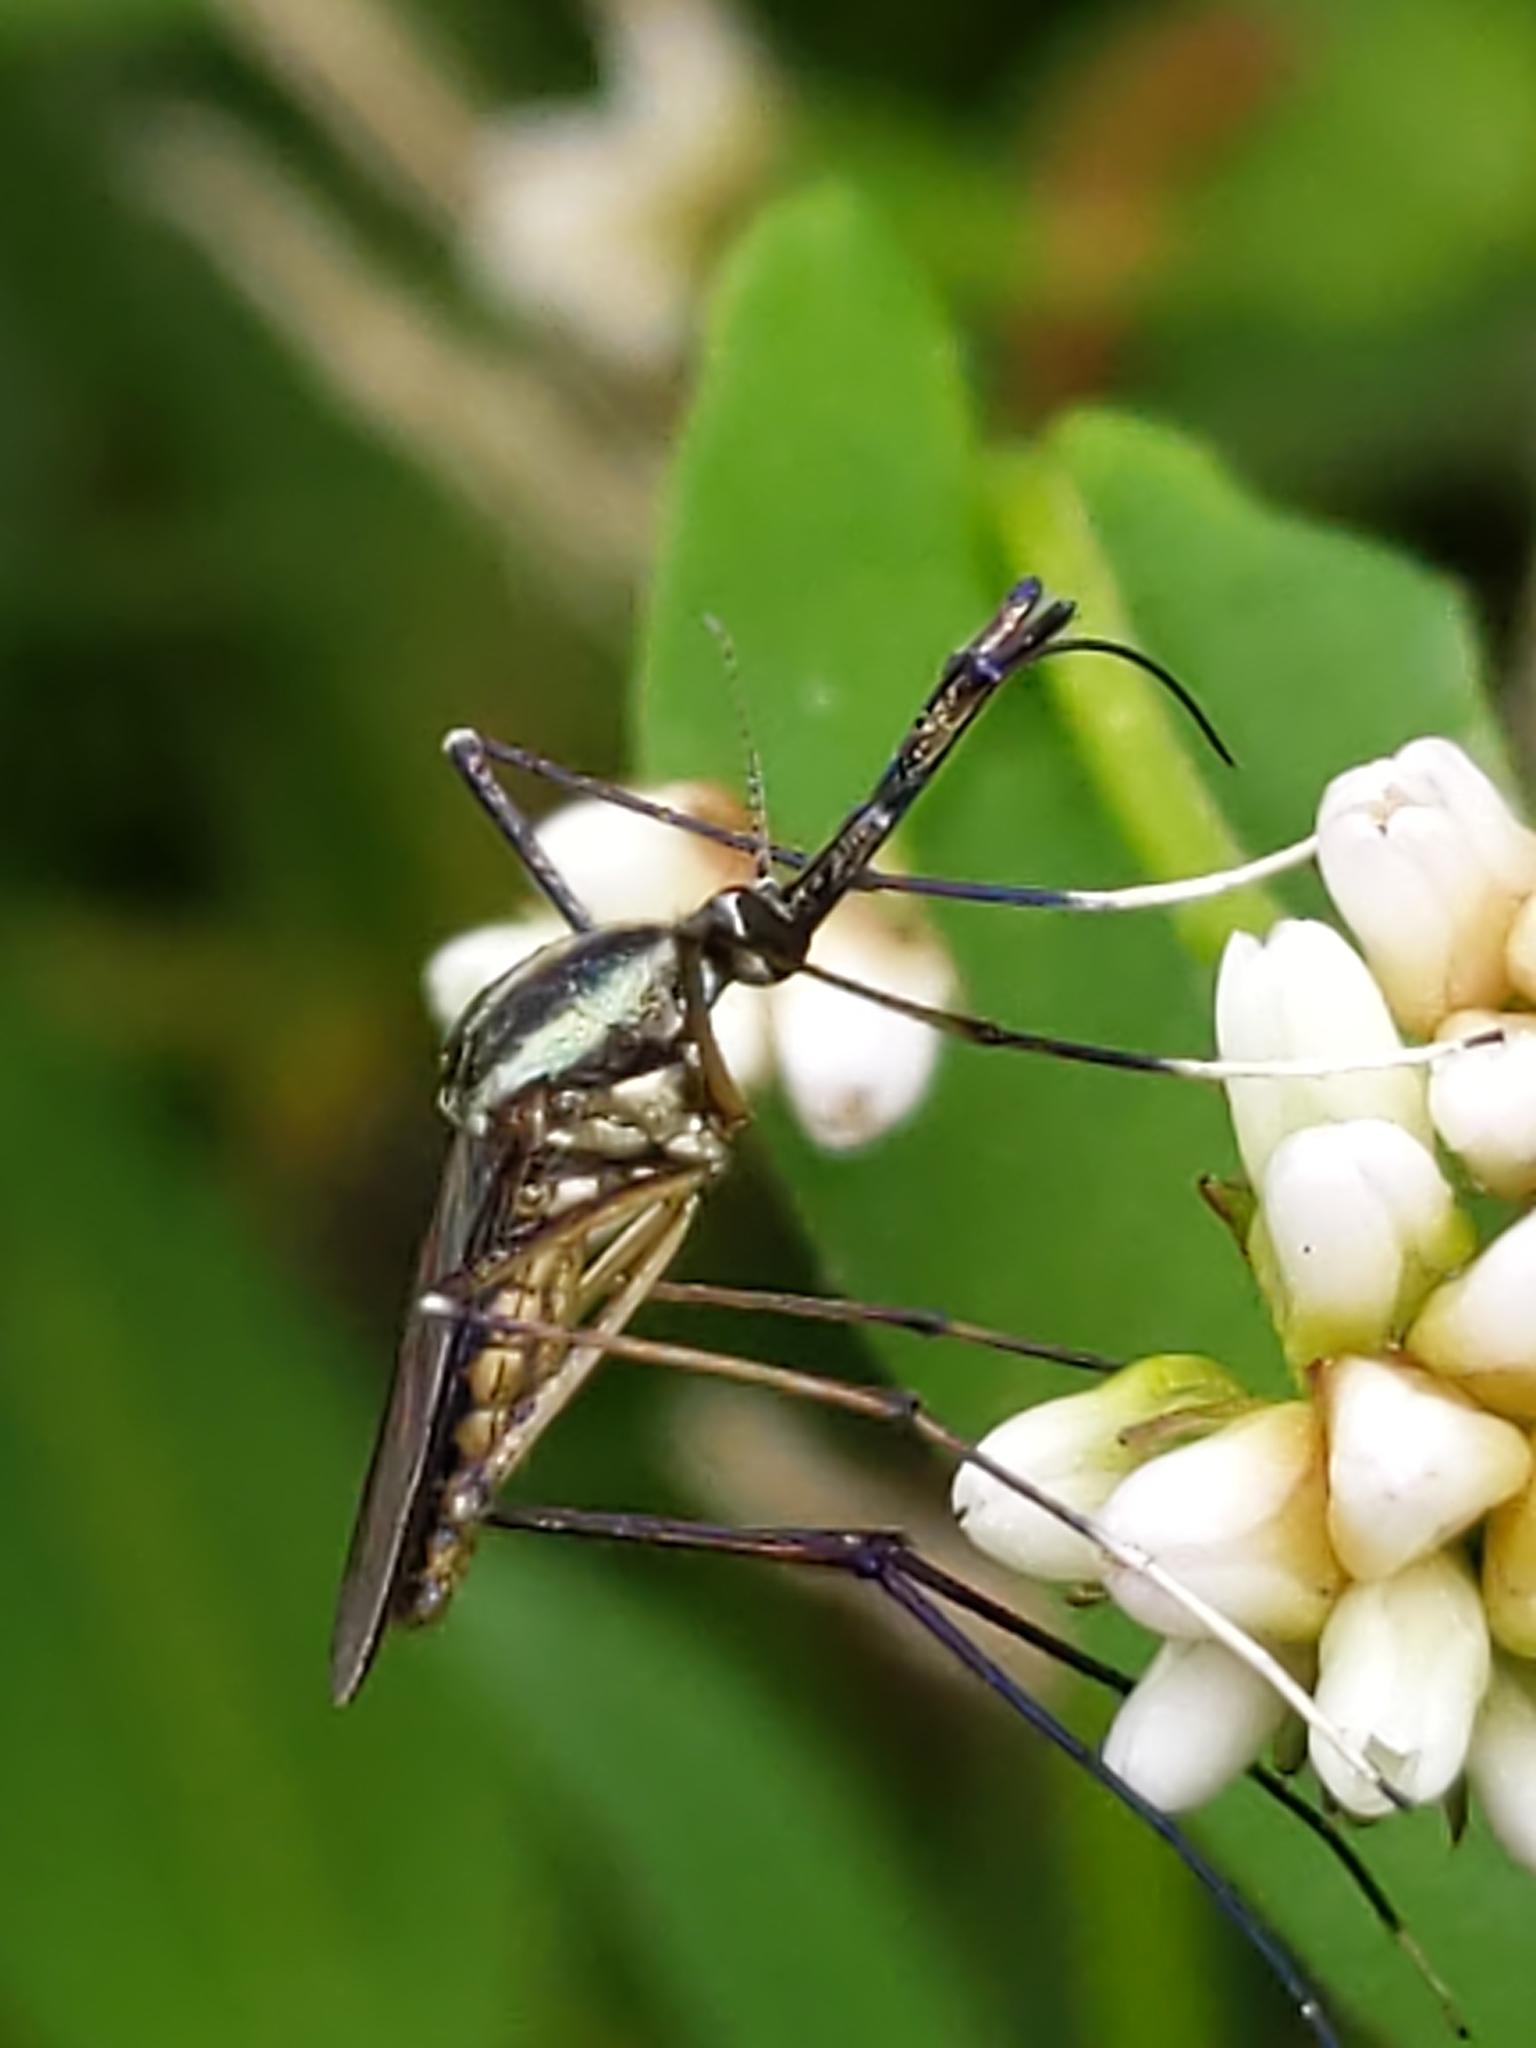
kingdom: Animalia
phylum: Arthropoda
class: Insecta
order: Diptera
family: Culicidae
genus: Toxorhynchites
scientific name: Toxorhynchites rutilus
